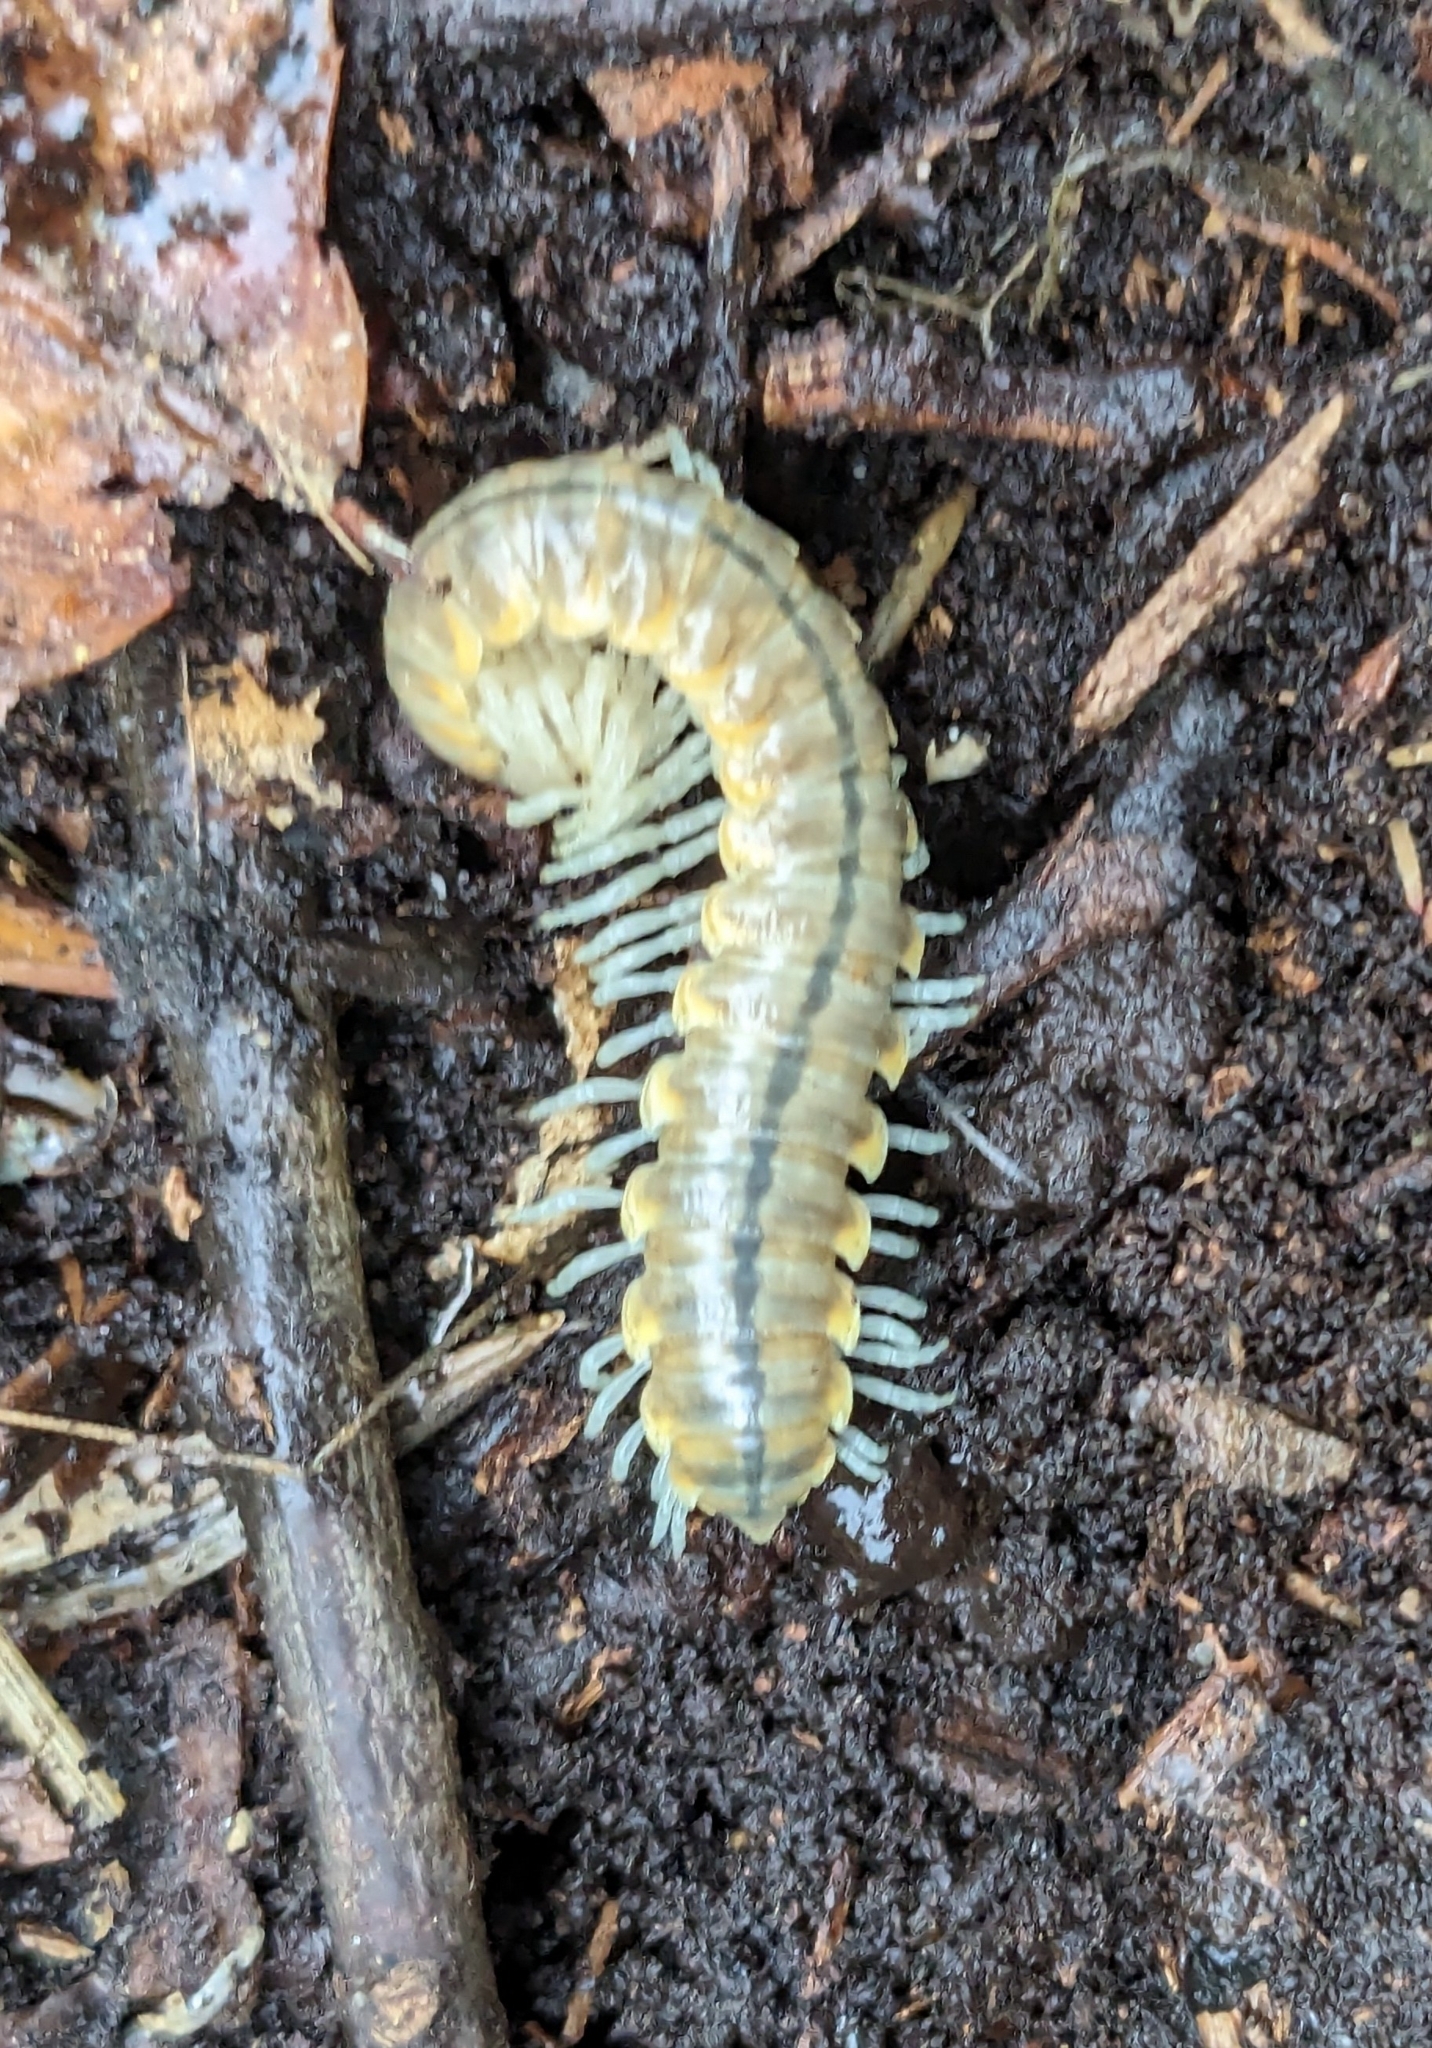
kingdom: Animalia
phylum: Arthropoda
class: Diplopoda
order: Polydesmida
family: Xystodesmidae
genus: Xystocheir
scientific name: Xystocheir dissecta
